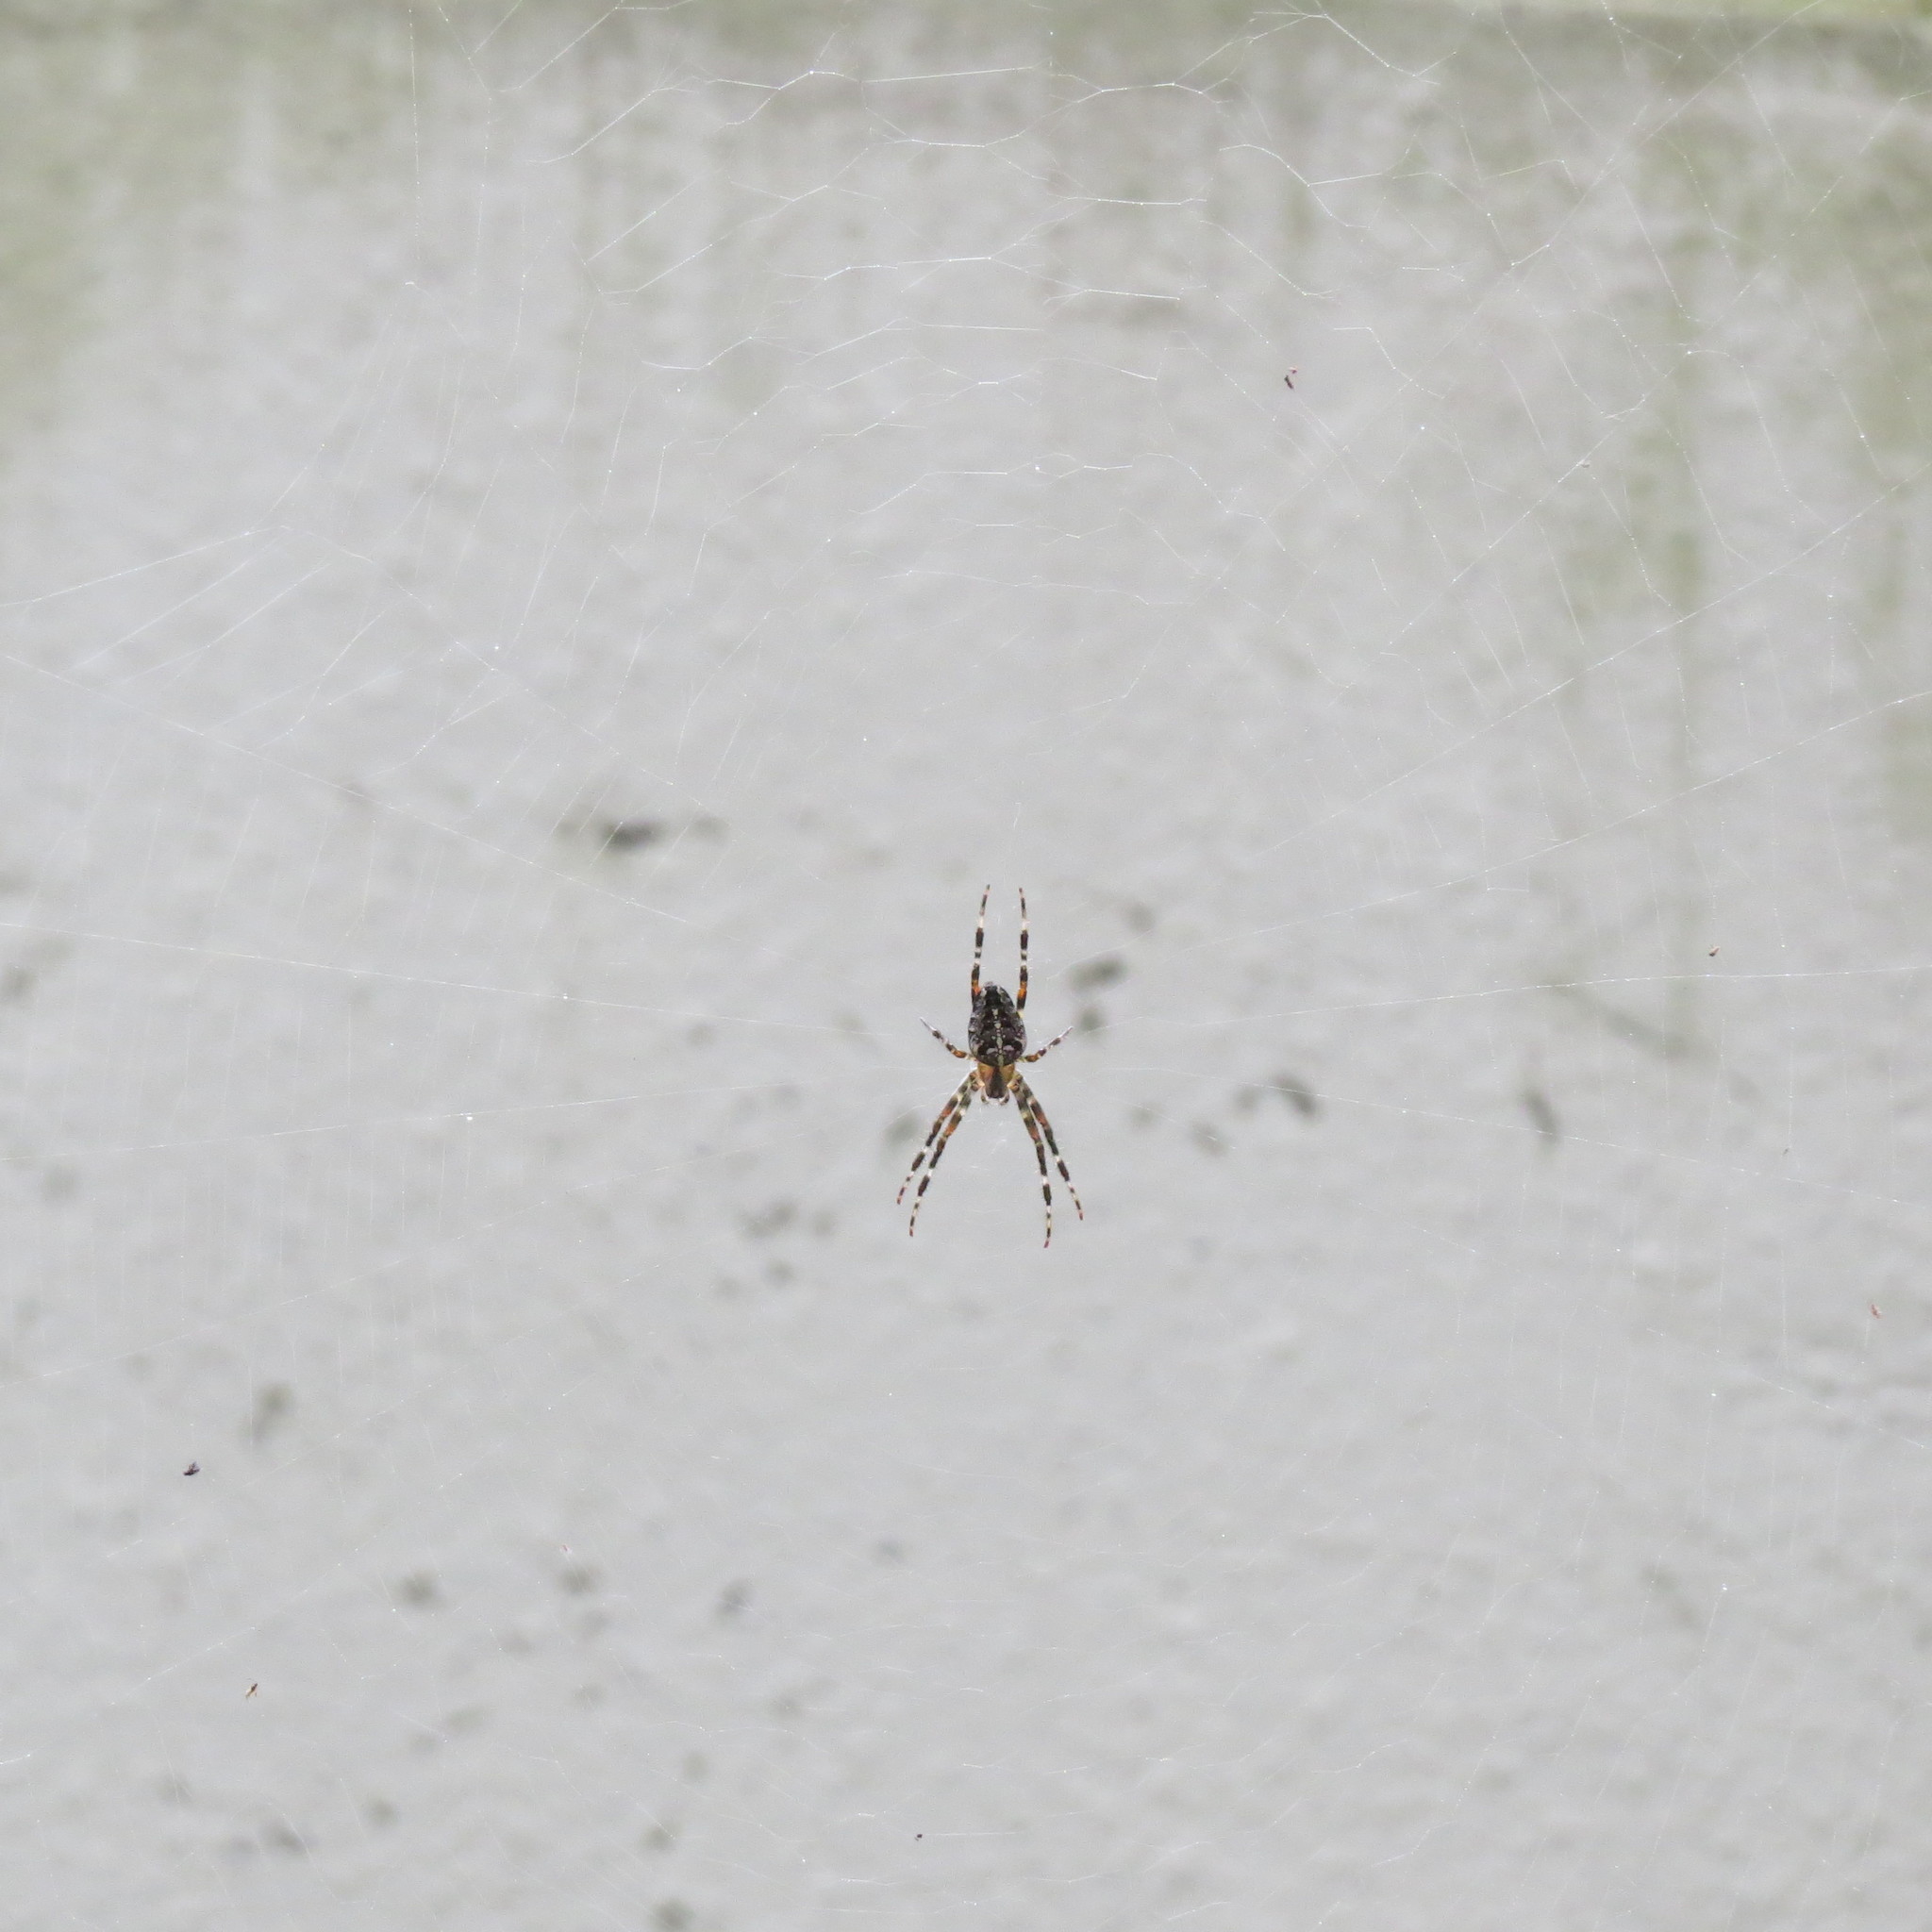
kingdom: Animalia
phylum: Arthropoda
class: Arachnida
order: Araneae
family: Araneidae
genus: Araneus
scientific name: Araneus diadematus
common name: Cross orbweaver
